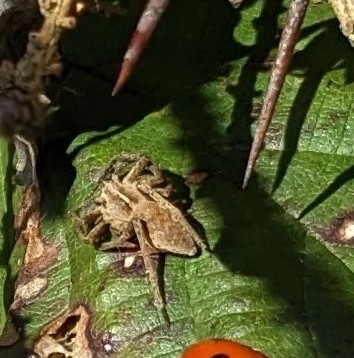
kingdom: Animalia
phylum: Arthropoda
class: Arachnida
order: Araneae
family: Pisauridae
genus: Pisaura
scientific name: Pisaura mirabilis
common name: Tent spider
